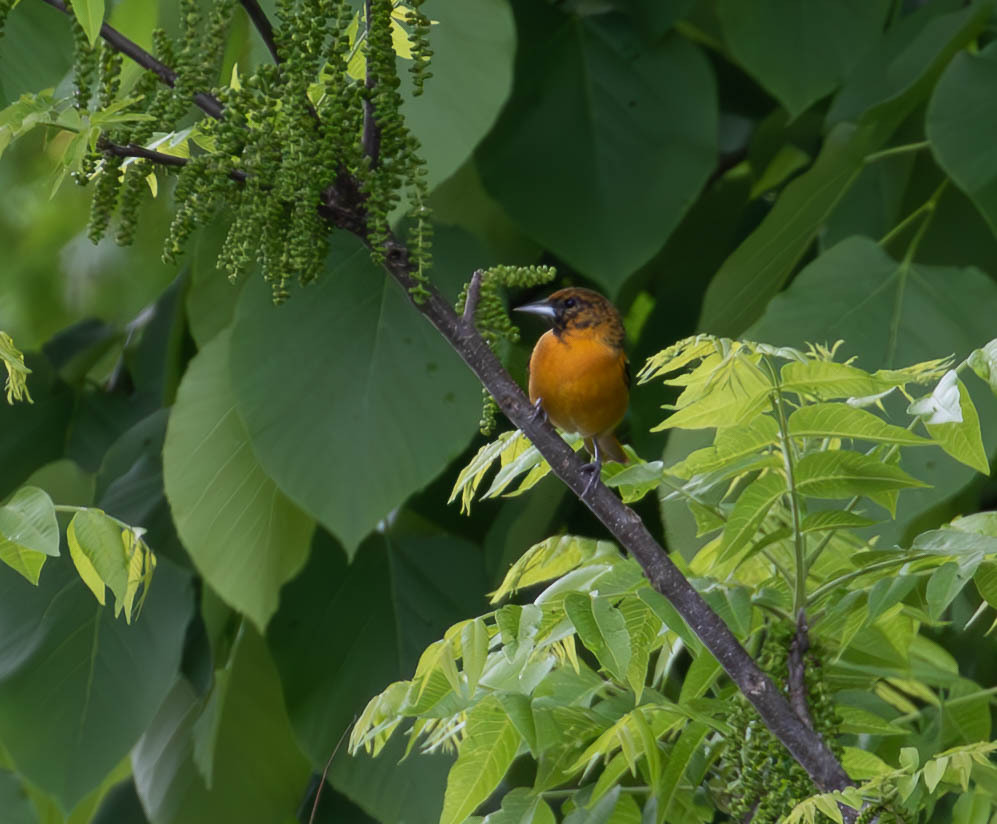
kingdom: Animalia
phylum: Chordata
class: Aves
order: Passeriformes
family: Icteridae
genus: Icterus
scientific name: Icterus galbula
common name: Baltimore oriole
